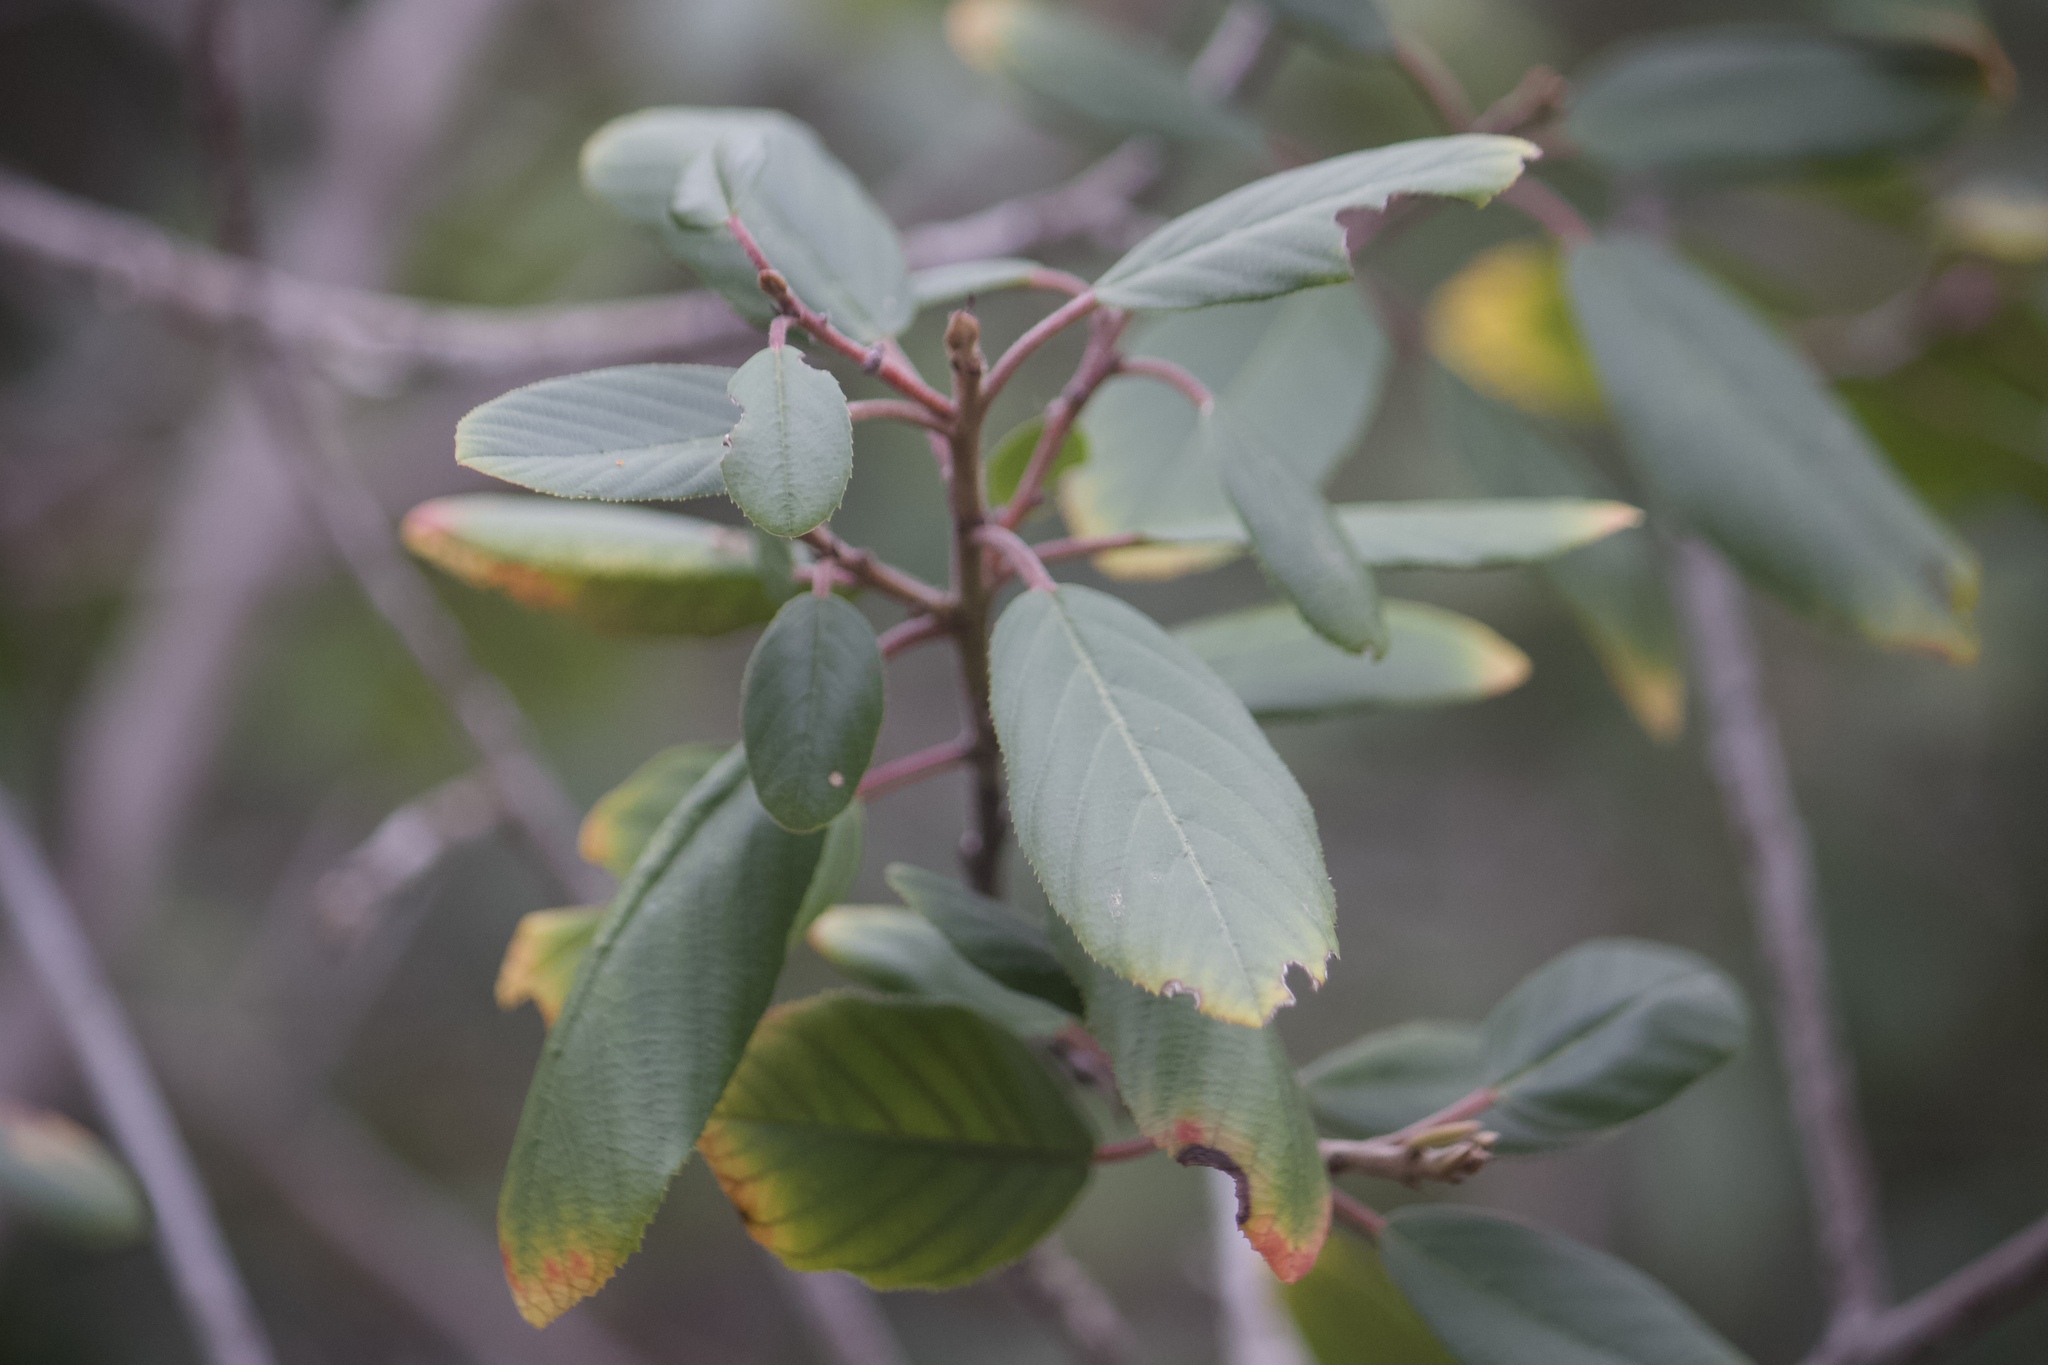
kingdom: Plantae
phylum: Tracheophyta
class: Magnoliopsida
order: Rosales
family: Rhamnaceae
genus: Frangula
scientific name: Frangula californica
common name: California buckthorn
